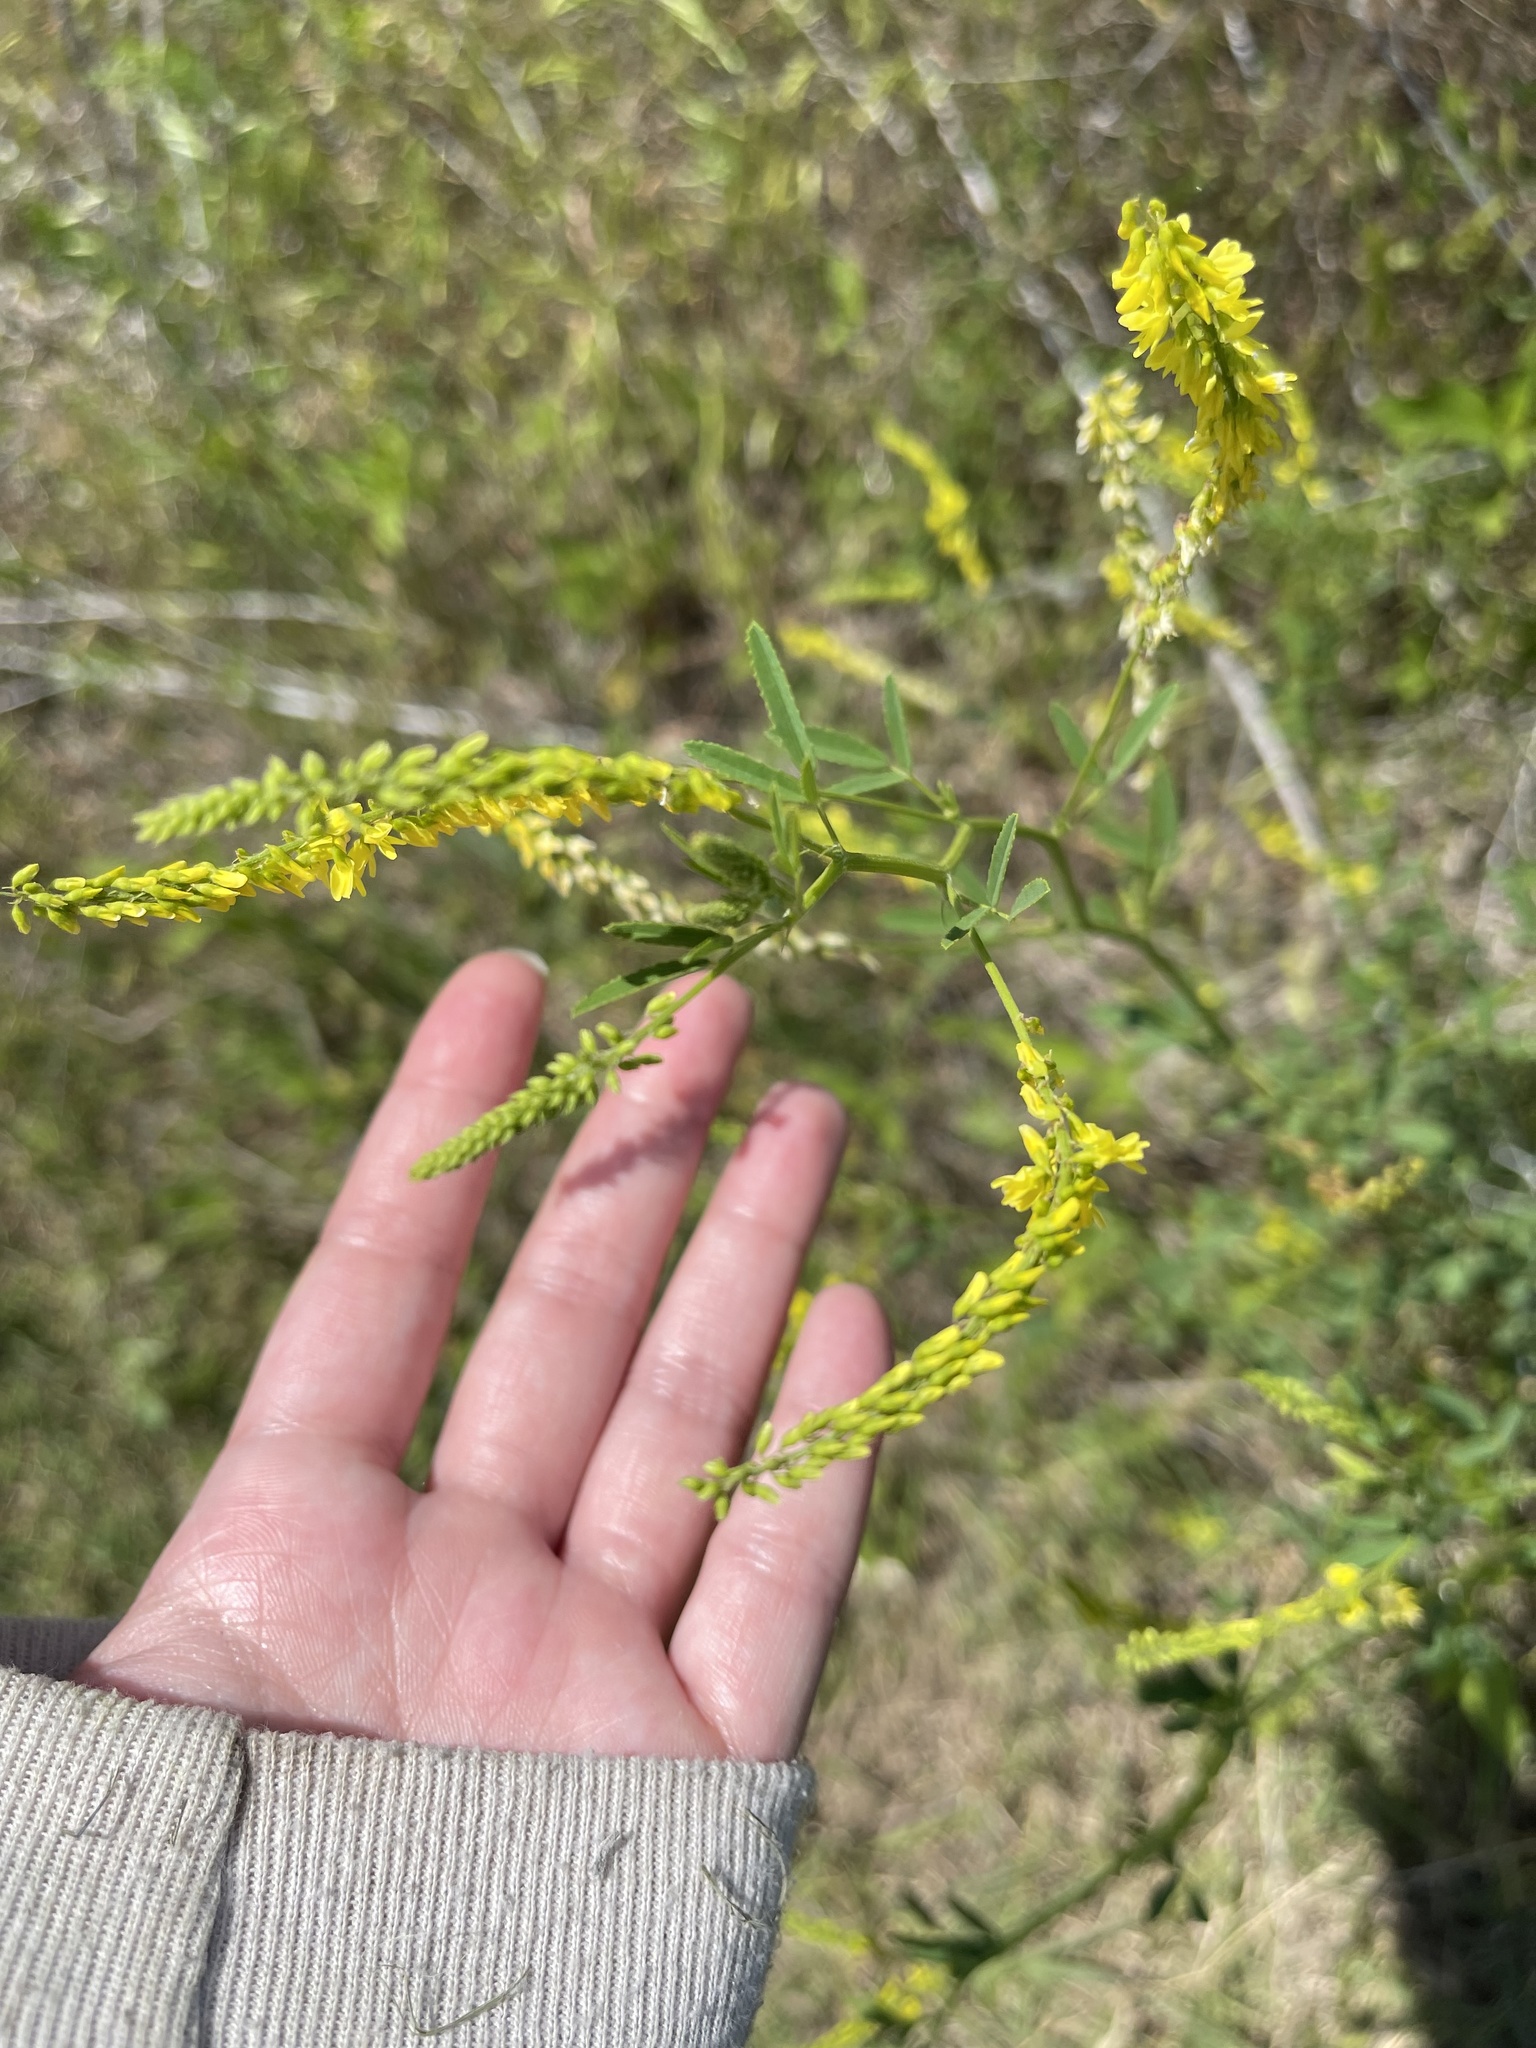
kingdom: Plantae
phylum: Tracheophyta
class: Magnoliopsida
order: Fabales
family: Fabaceae
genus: Melilotus
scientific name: Melilotus officinalis
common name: Sweetclover
